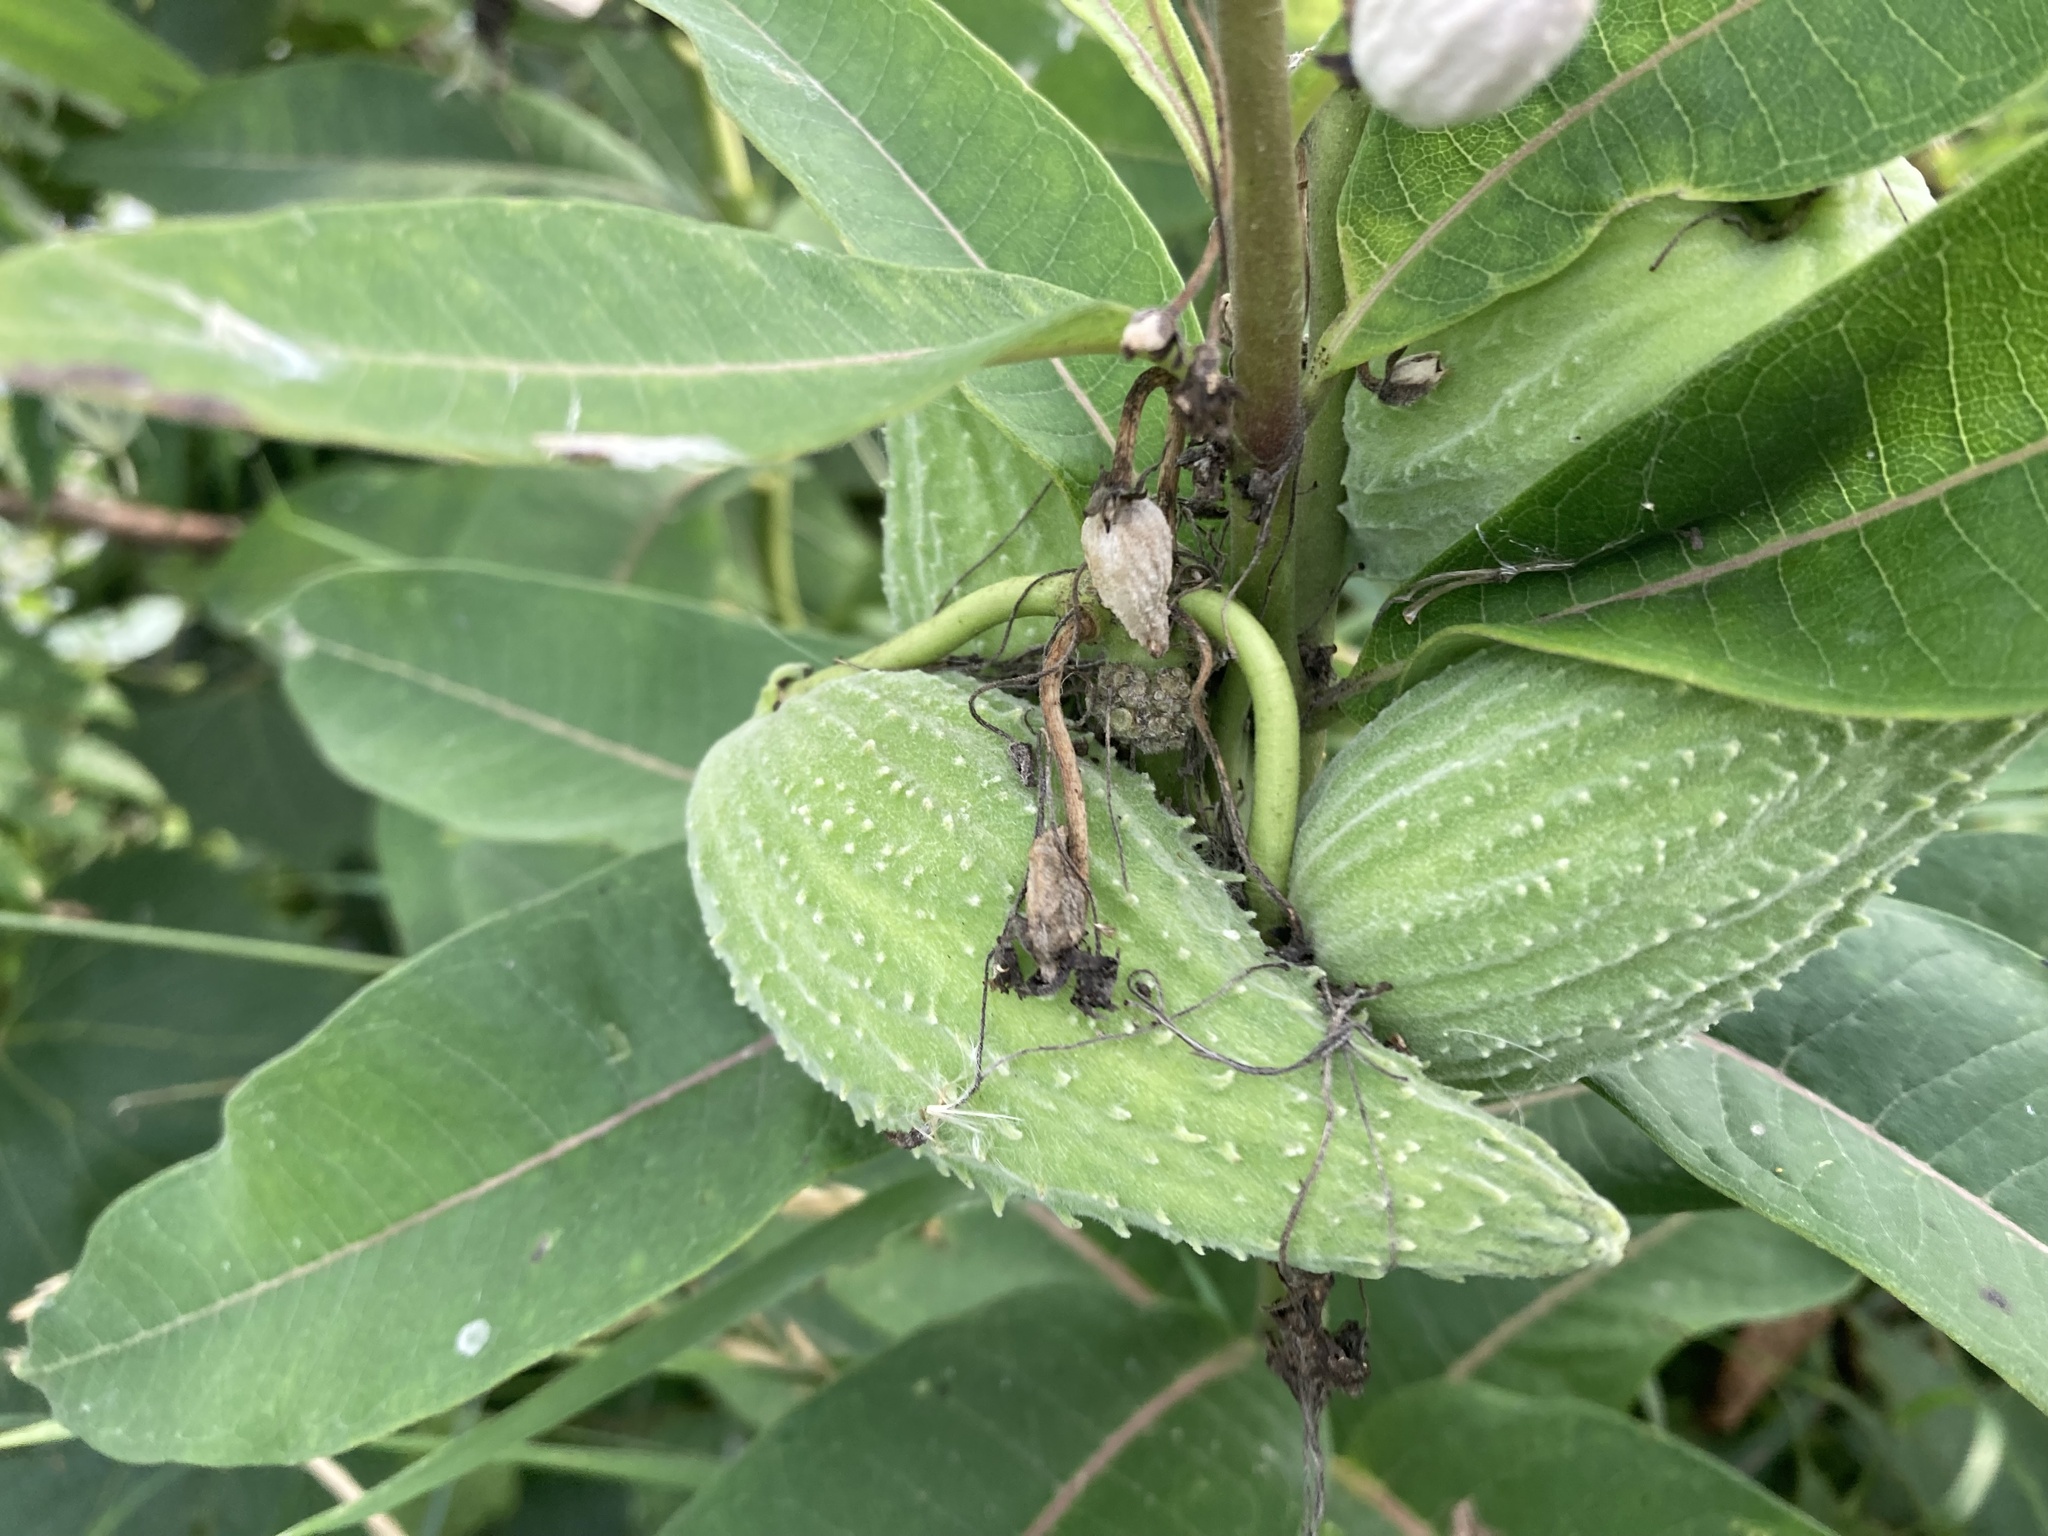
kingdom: Plantae
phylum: Tracheophyta
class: Magnoliopsida
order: Gentianales
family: Apocynaceae
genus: Asclepias
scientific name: Asclepias syriaca
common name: Common milkweed
